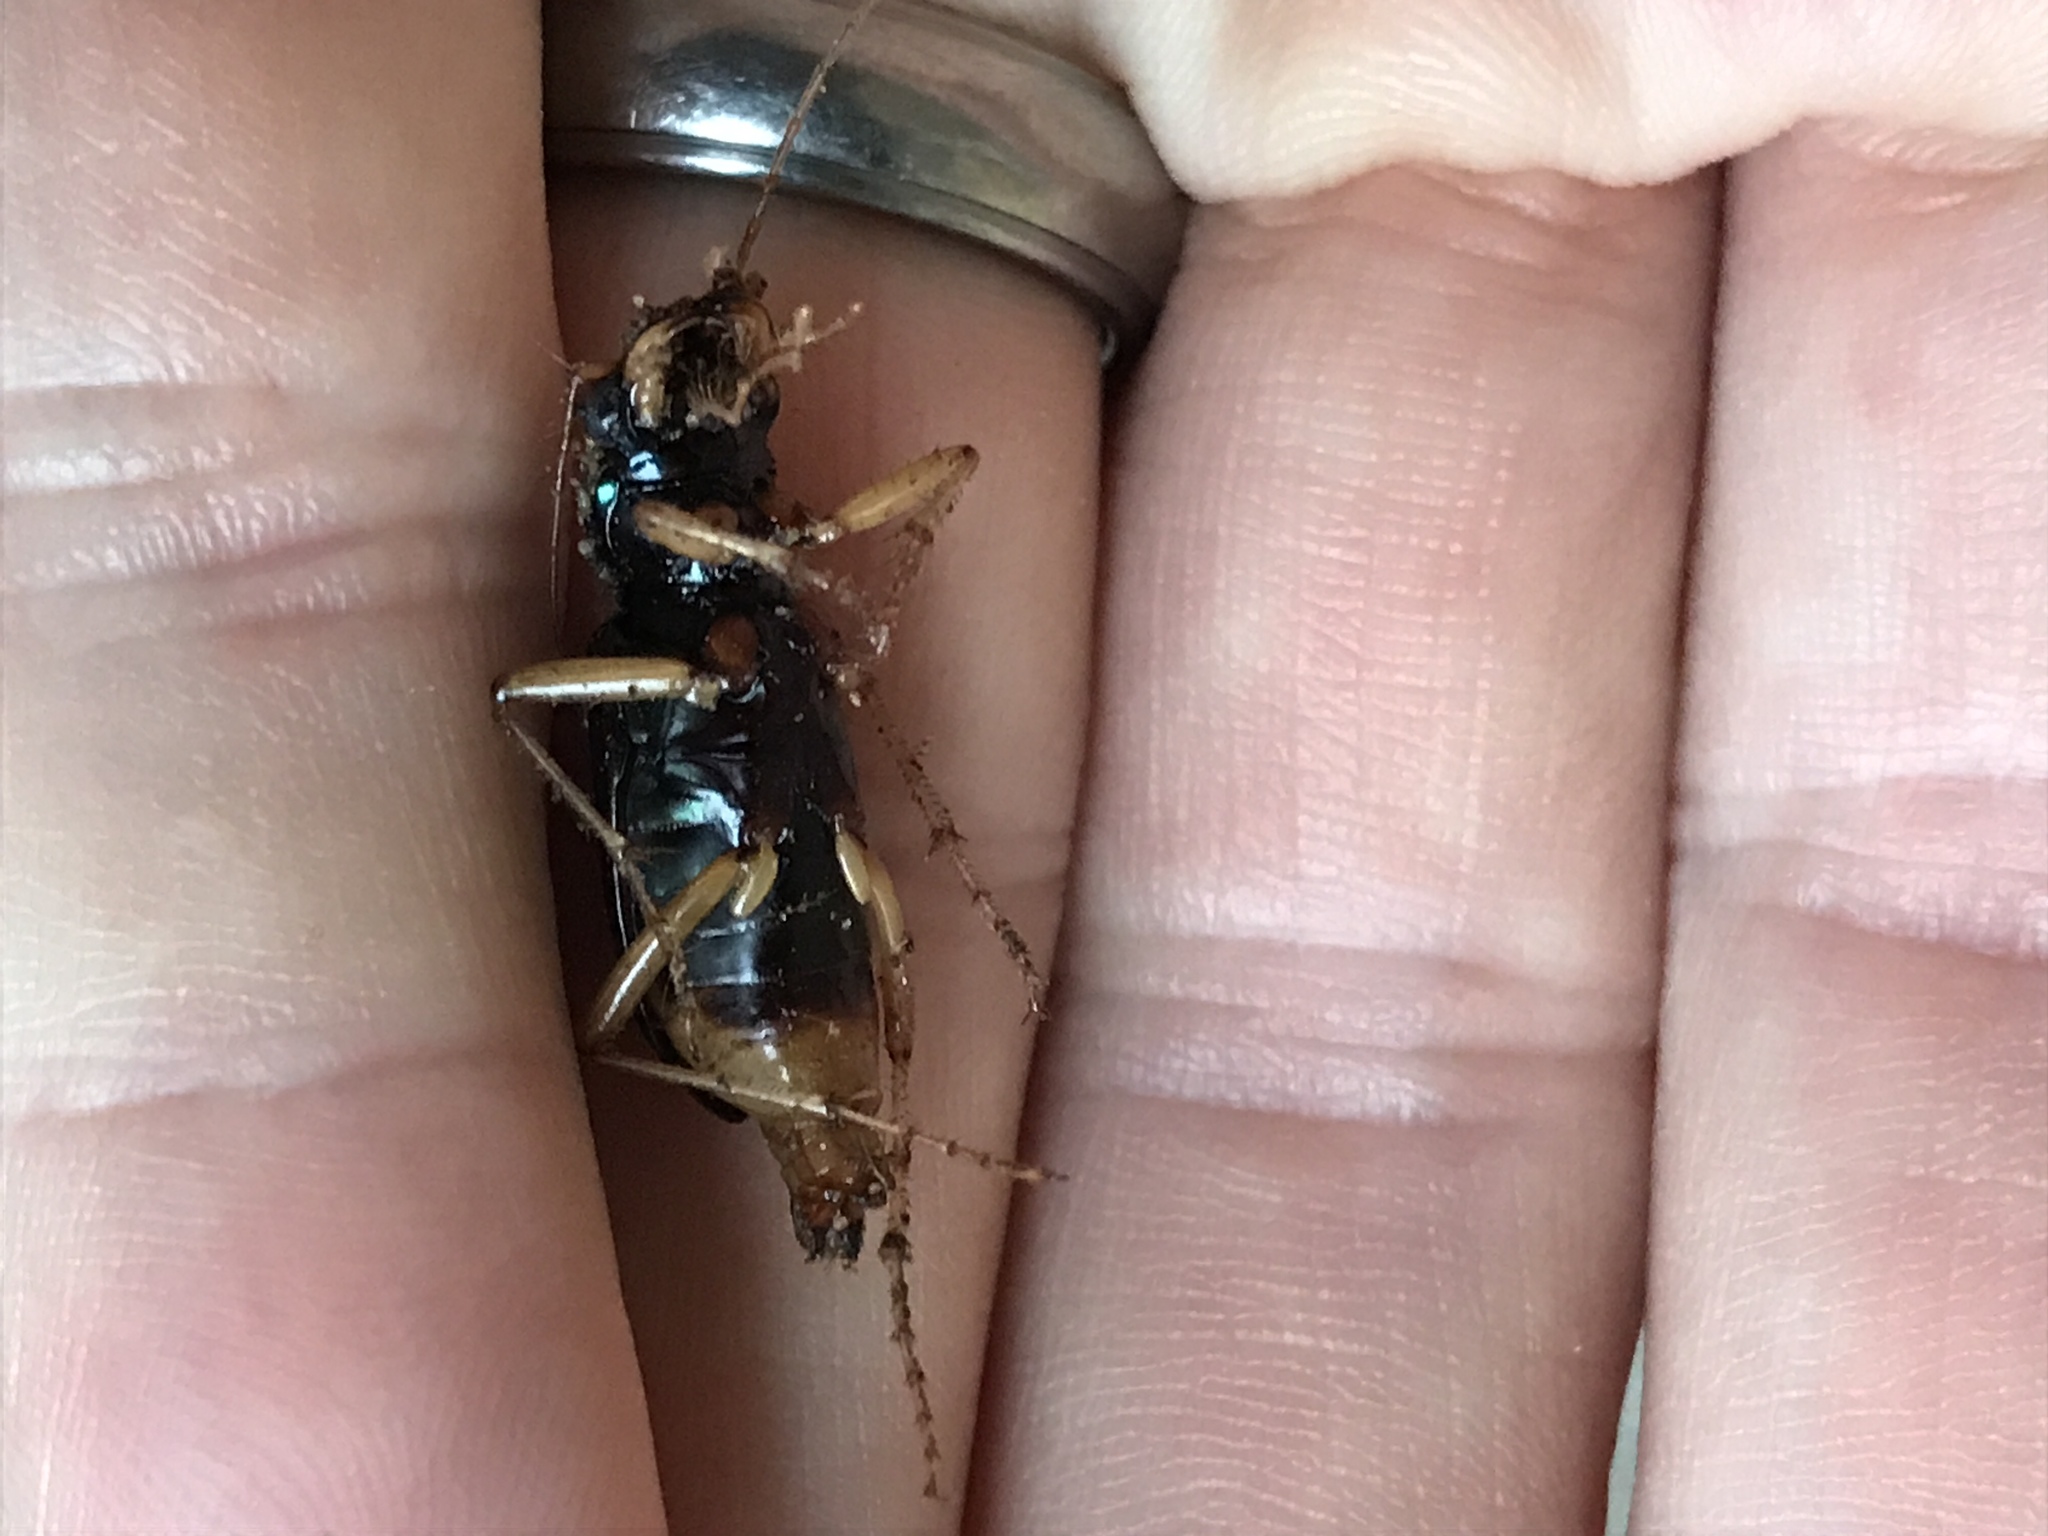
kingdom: Animalia
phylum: Arthropoda
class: Insecta
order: Coleoptera
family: Carabidae
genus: Tetracha
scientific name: Tetracha virginica
